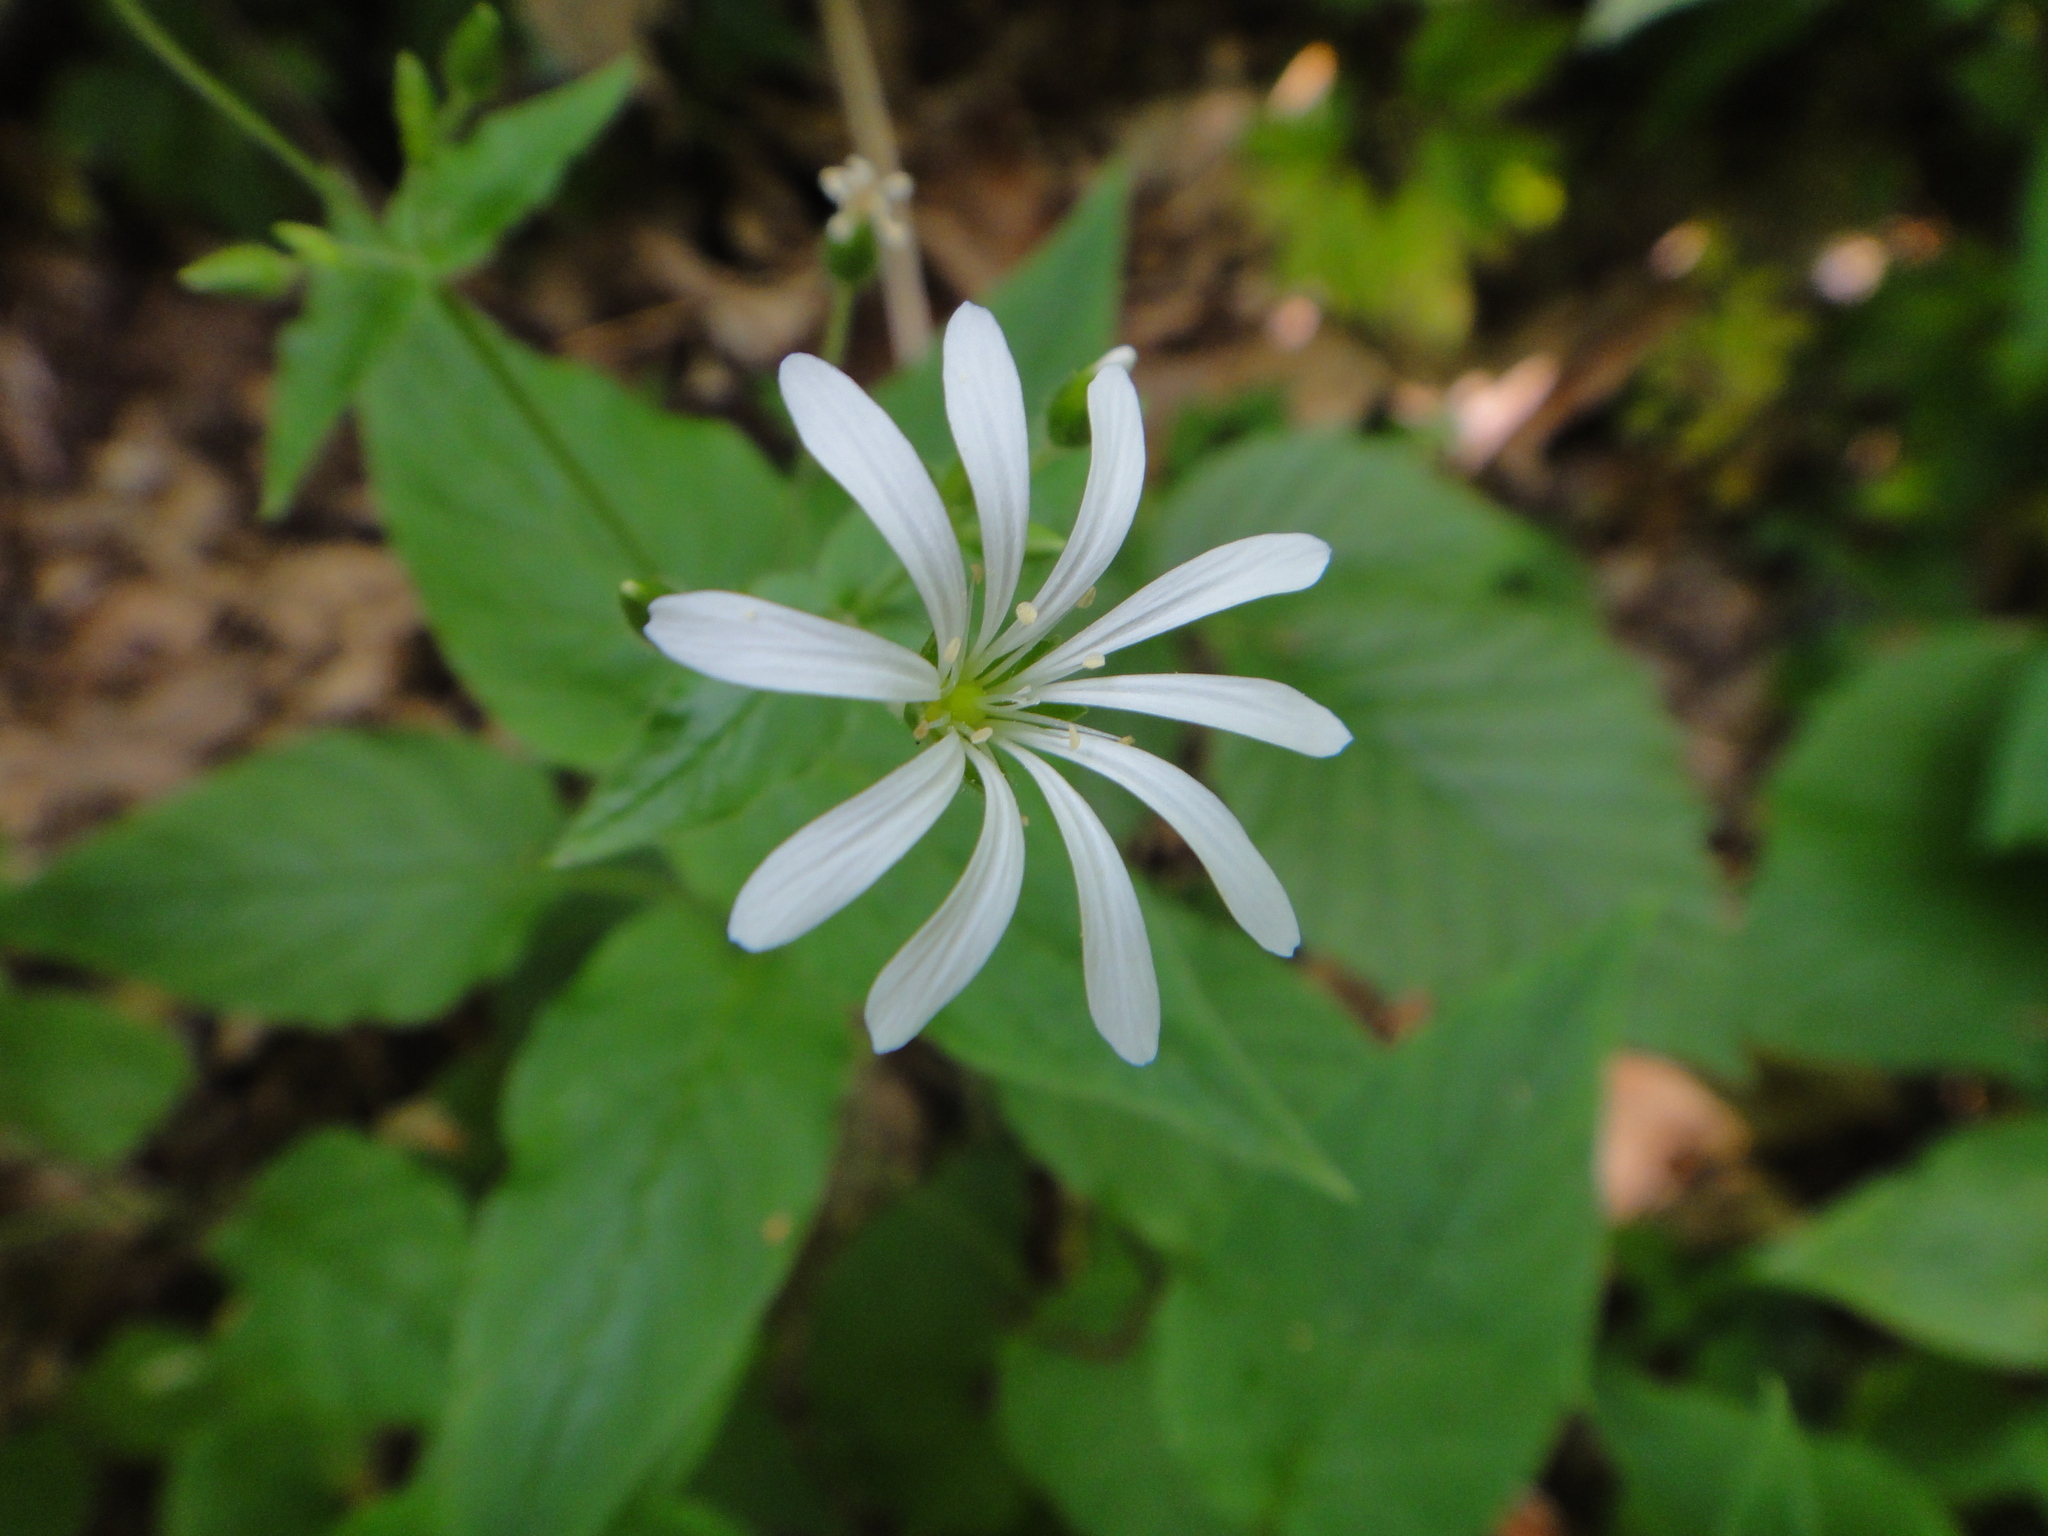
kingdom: Plantae
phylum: Tracheophyta
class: Magnoliopsida
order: Caryophyllales
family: Caryophyllaceae
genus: Stellaria
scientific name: Stellaria glochidisperma
